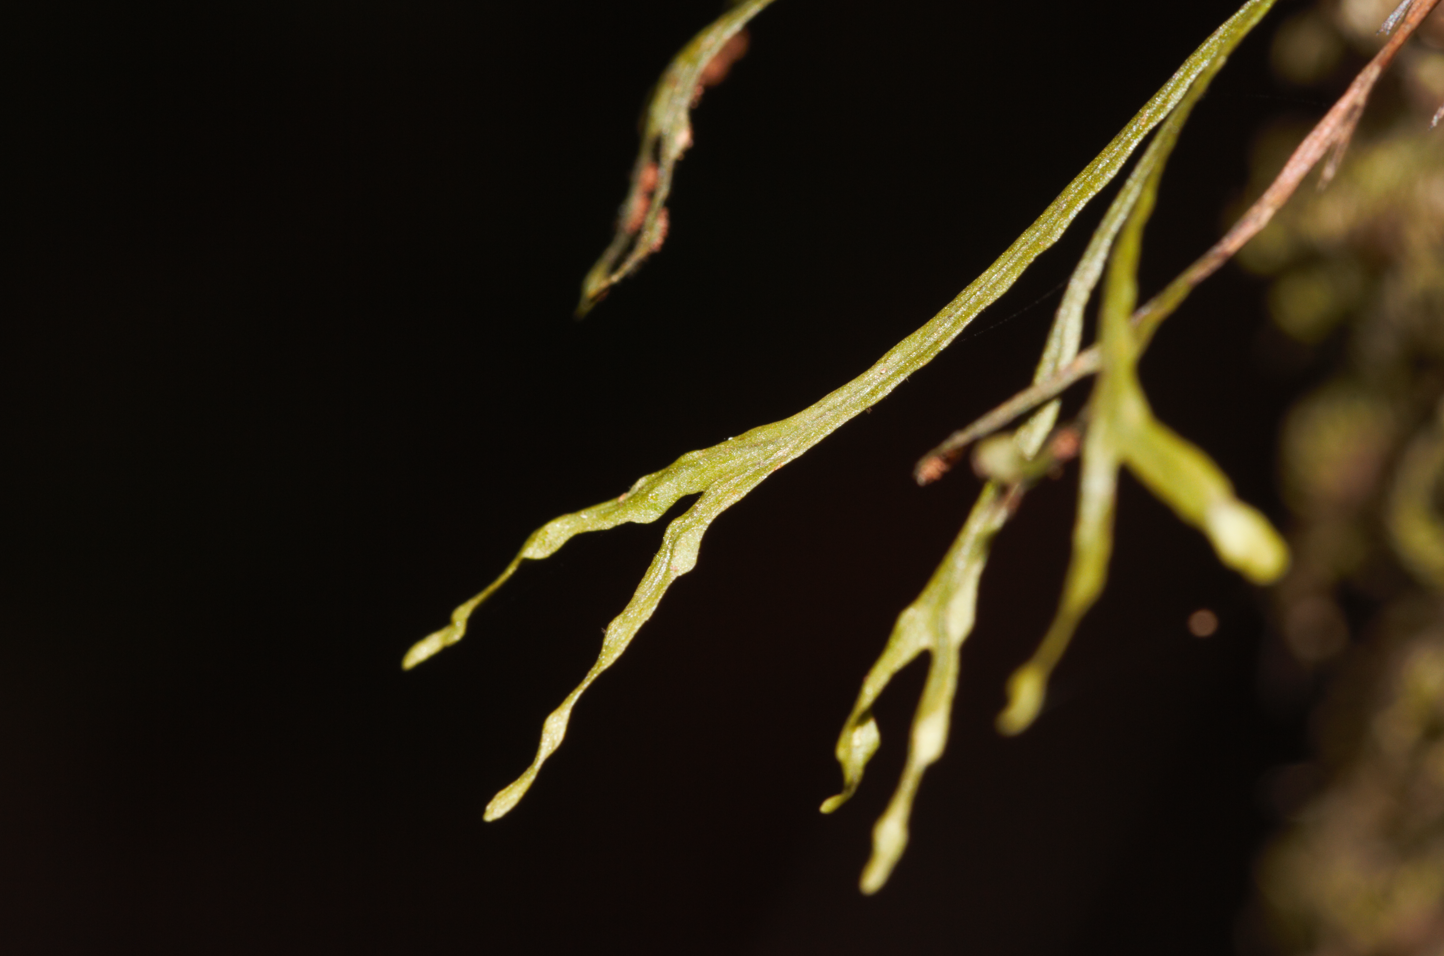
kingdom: Plantae
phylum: Tracheophyta
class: Polypodiopsida
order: Polypodiales
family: Polypodiaceae
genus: Cochlidium
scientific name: Cochlidium furcatum
